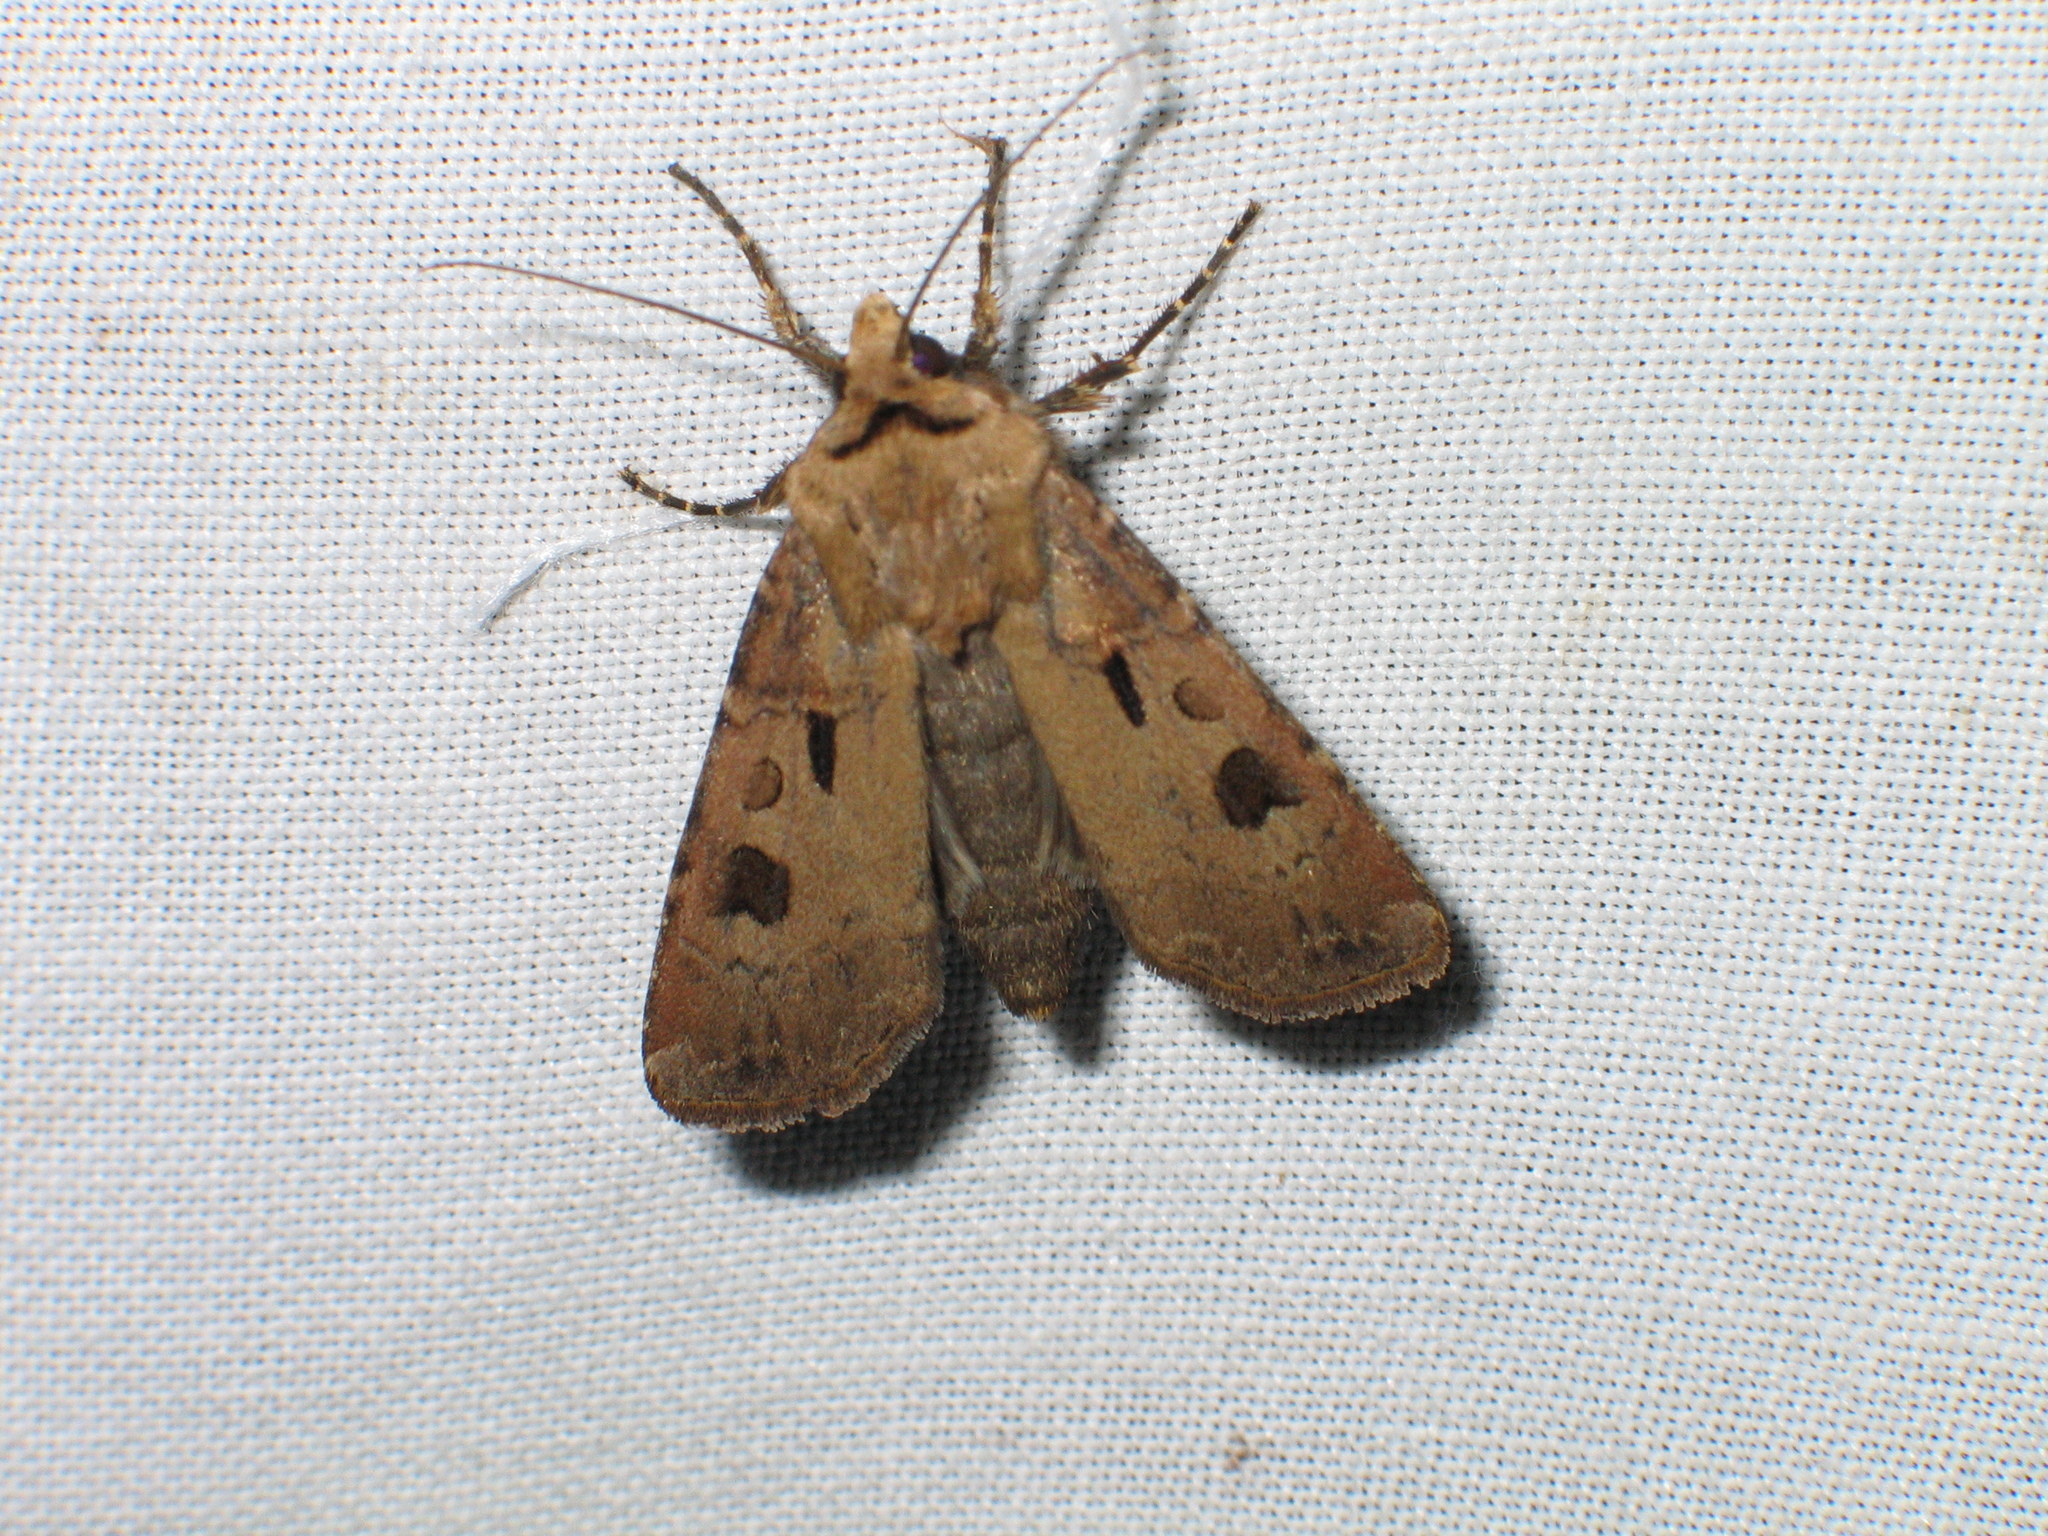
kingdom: Animalia
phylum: Arthropoda
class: Insecta
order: Lepidoptera
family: Noctuidae
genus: Agrotis
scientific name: Agrotis exclamationis
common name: Heart and dart
